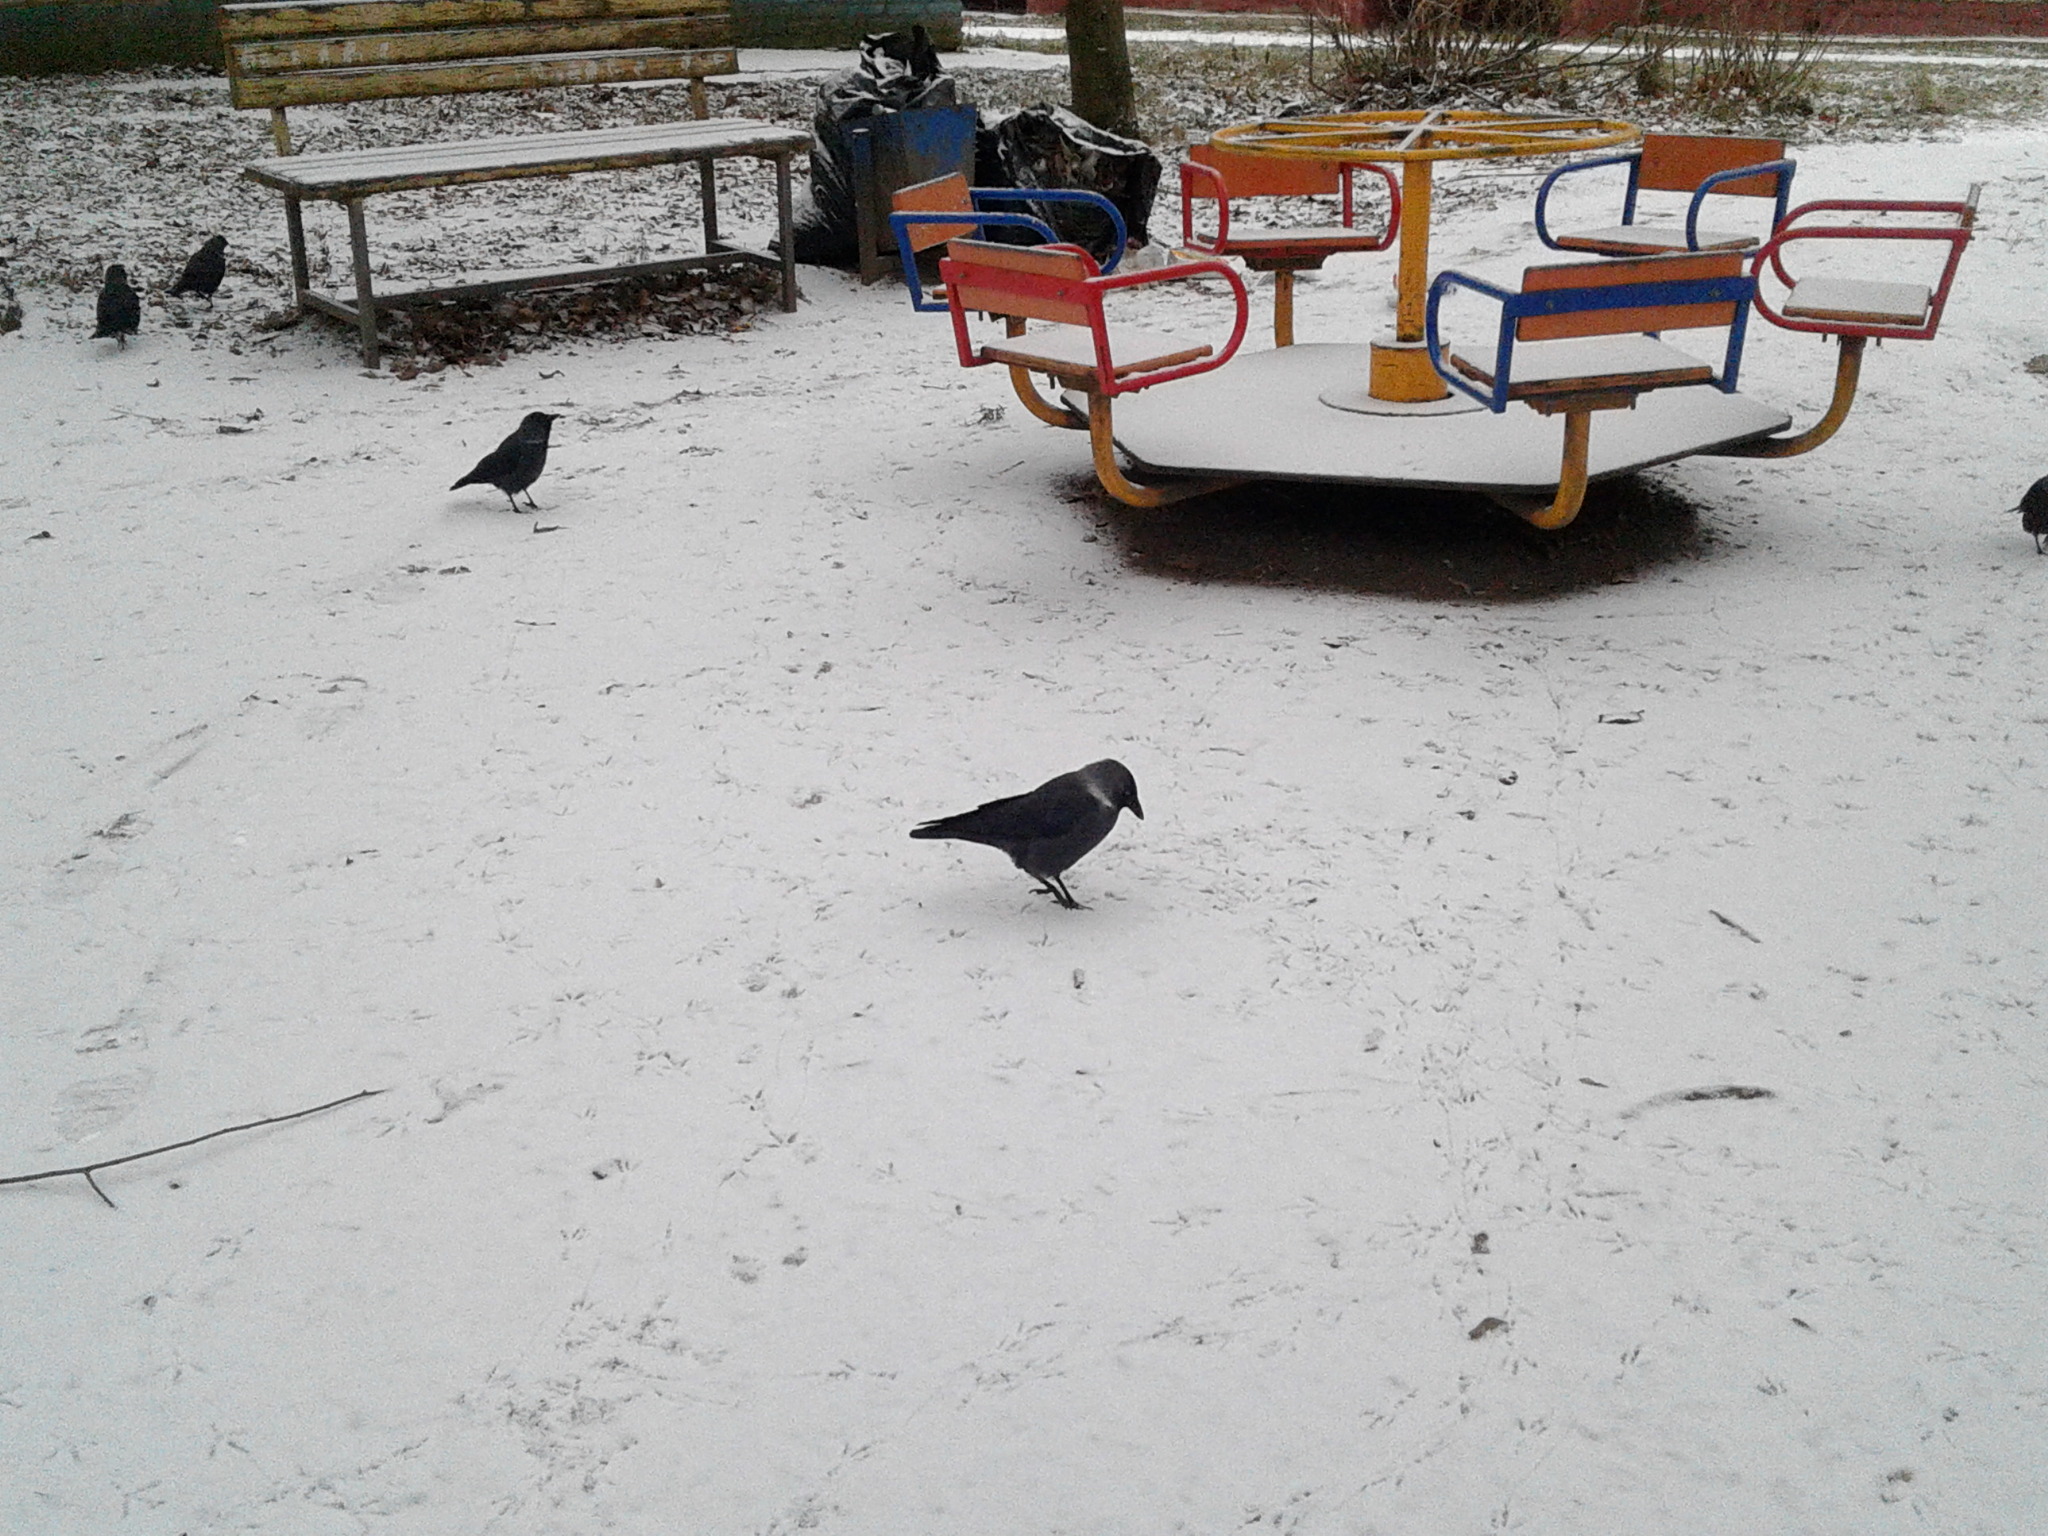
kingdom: Animalia
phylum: Chordata
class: Aves
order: Passeriformes
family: Corvidae
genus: Coloeus
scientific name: Coloeus monedula
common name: Western jackdaw
